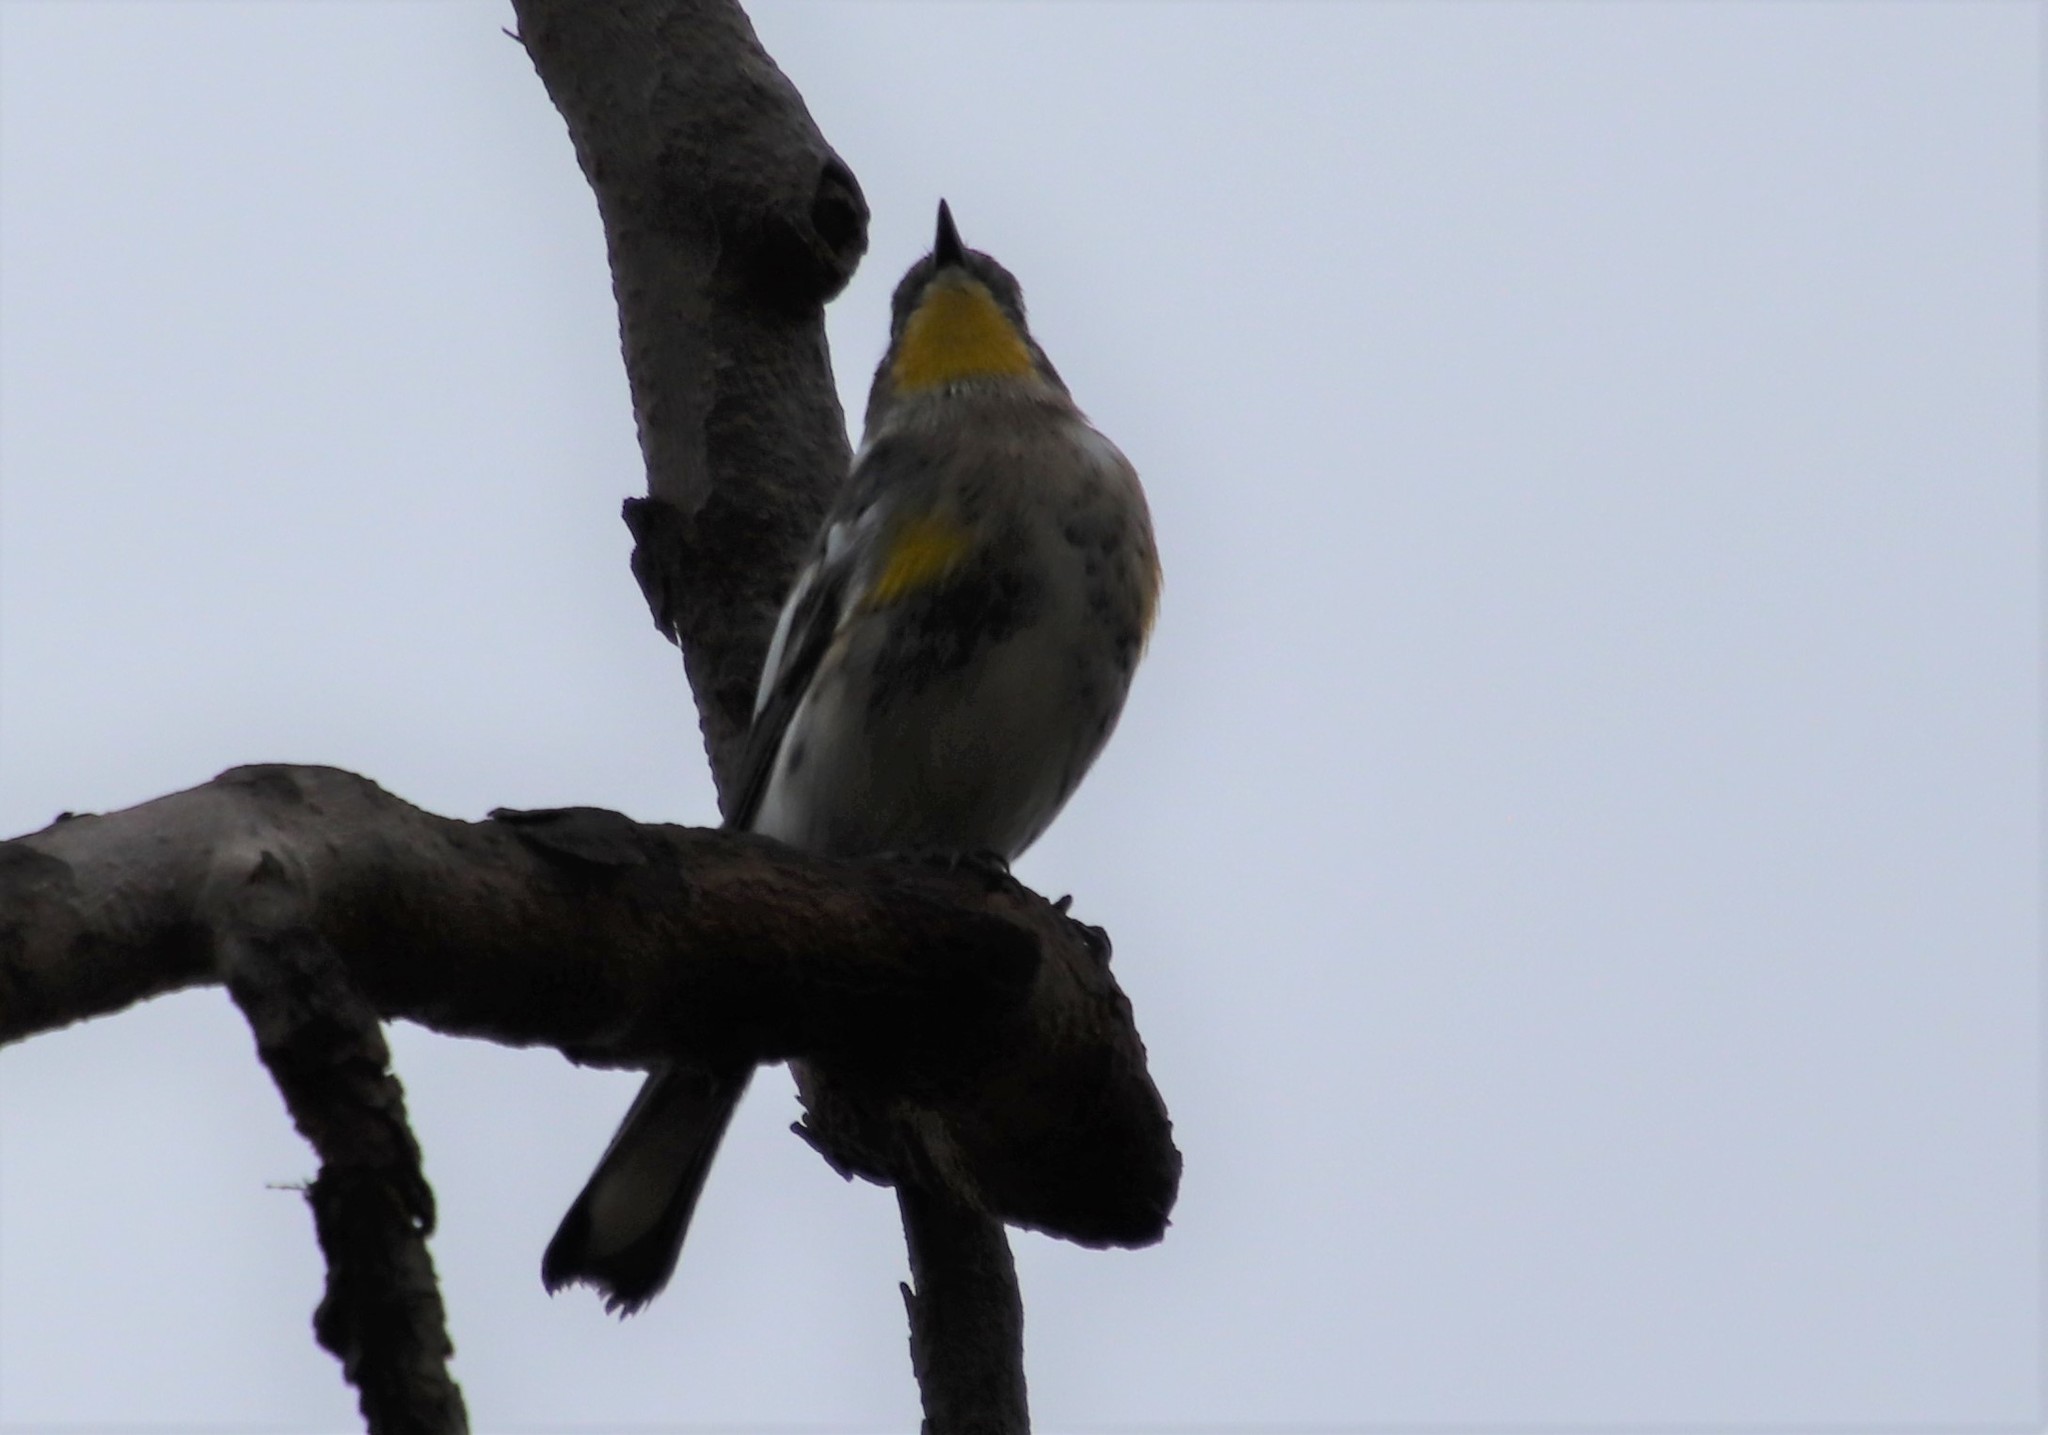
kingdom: Animalia
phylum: Chordata
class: Aves
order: Passeriformes
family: Parulidae
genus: Setophaga
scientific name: Setophaga auduboni
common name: Audubon's warbler
